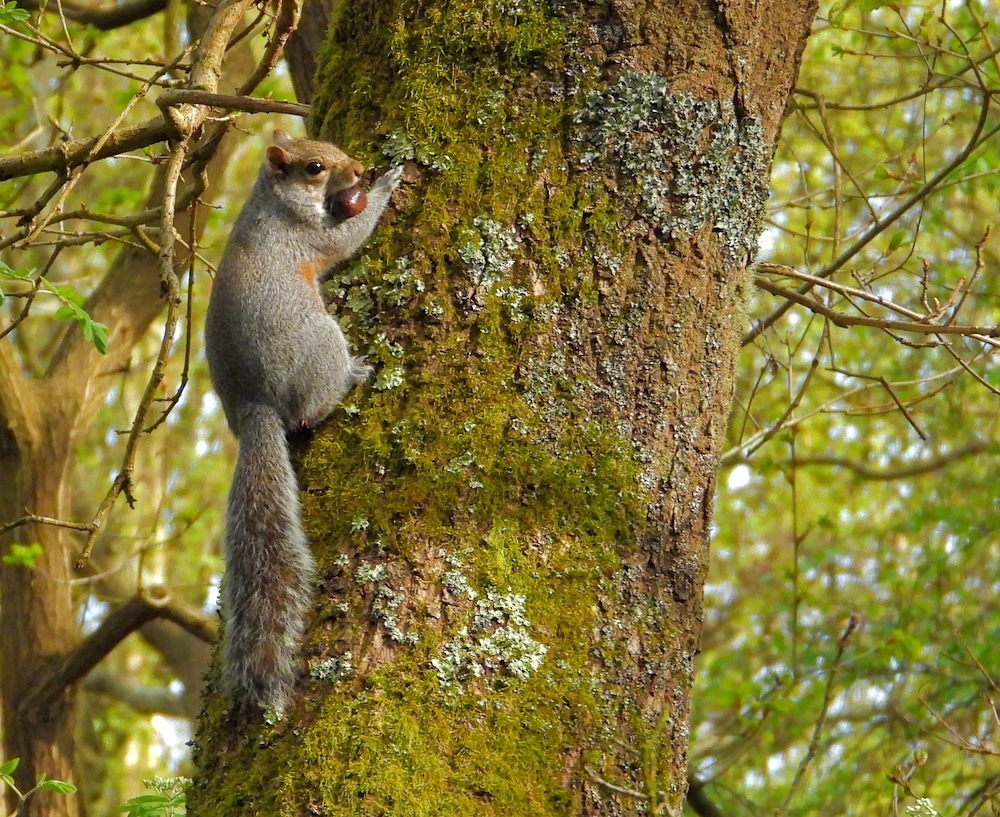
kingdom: Animalia
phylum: Chordata
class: Mammalia
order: Rodentia
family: Sciuridae
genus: Sciurus
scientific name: Sciurus carolinensis
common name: Eastern gray squirrel
